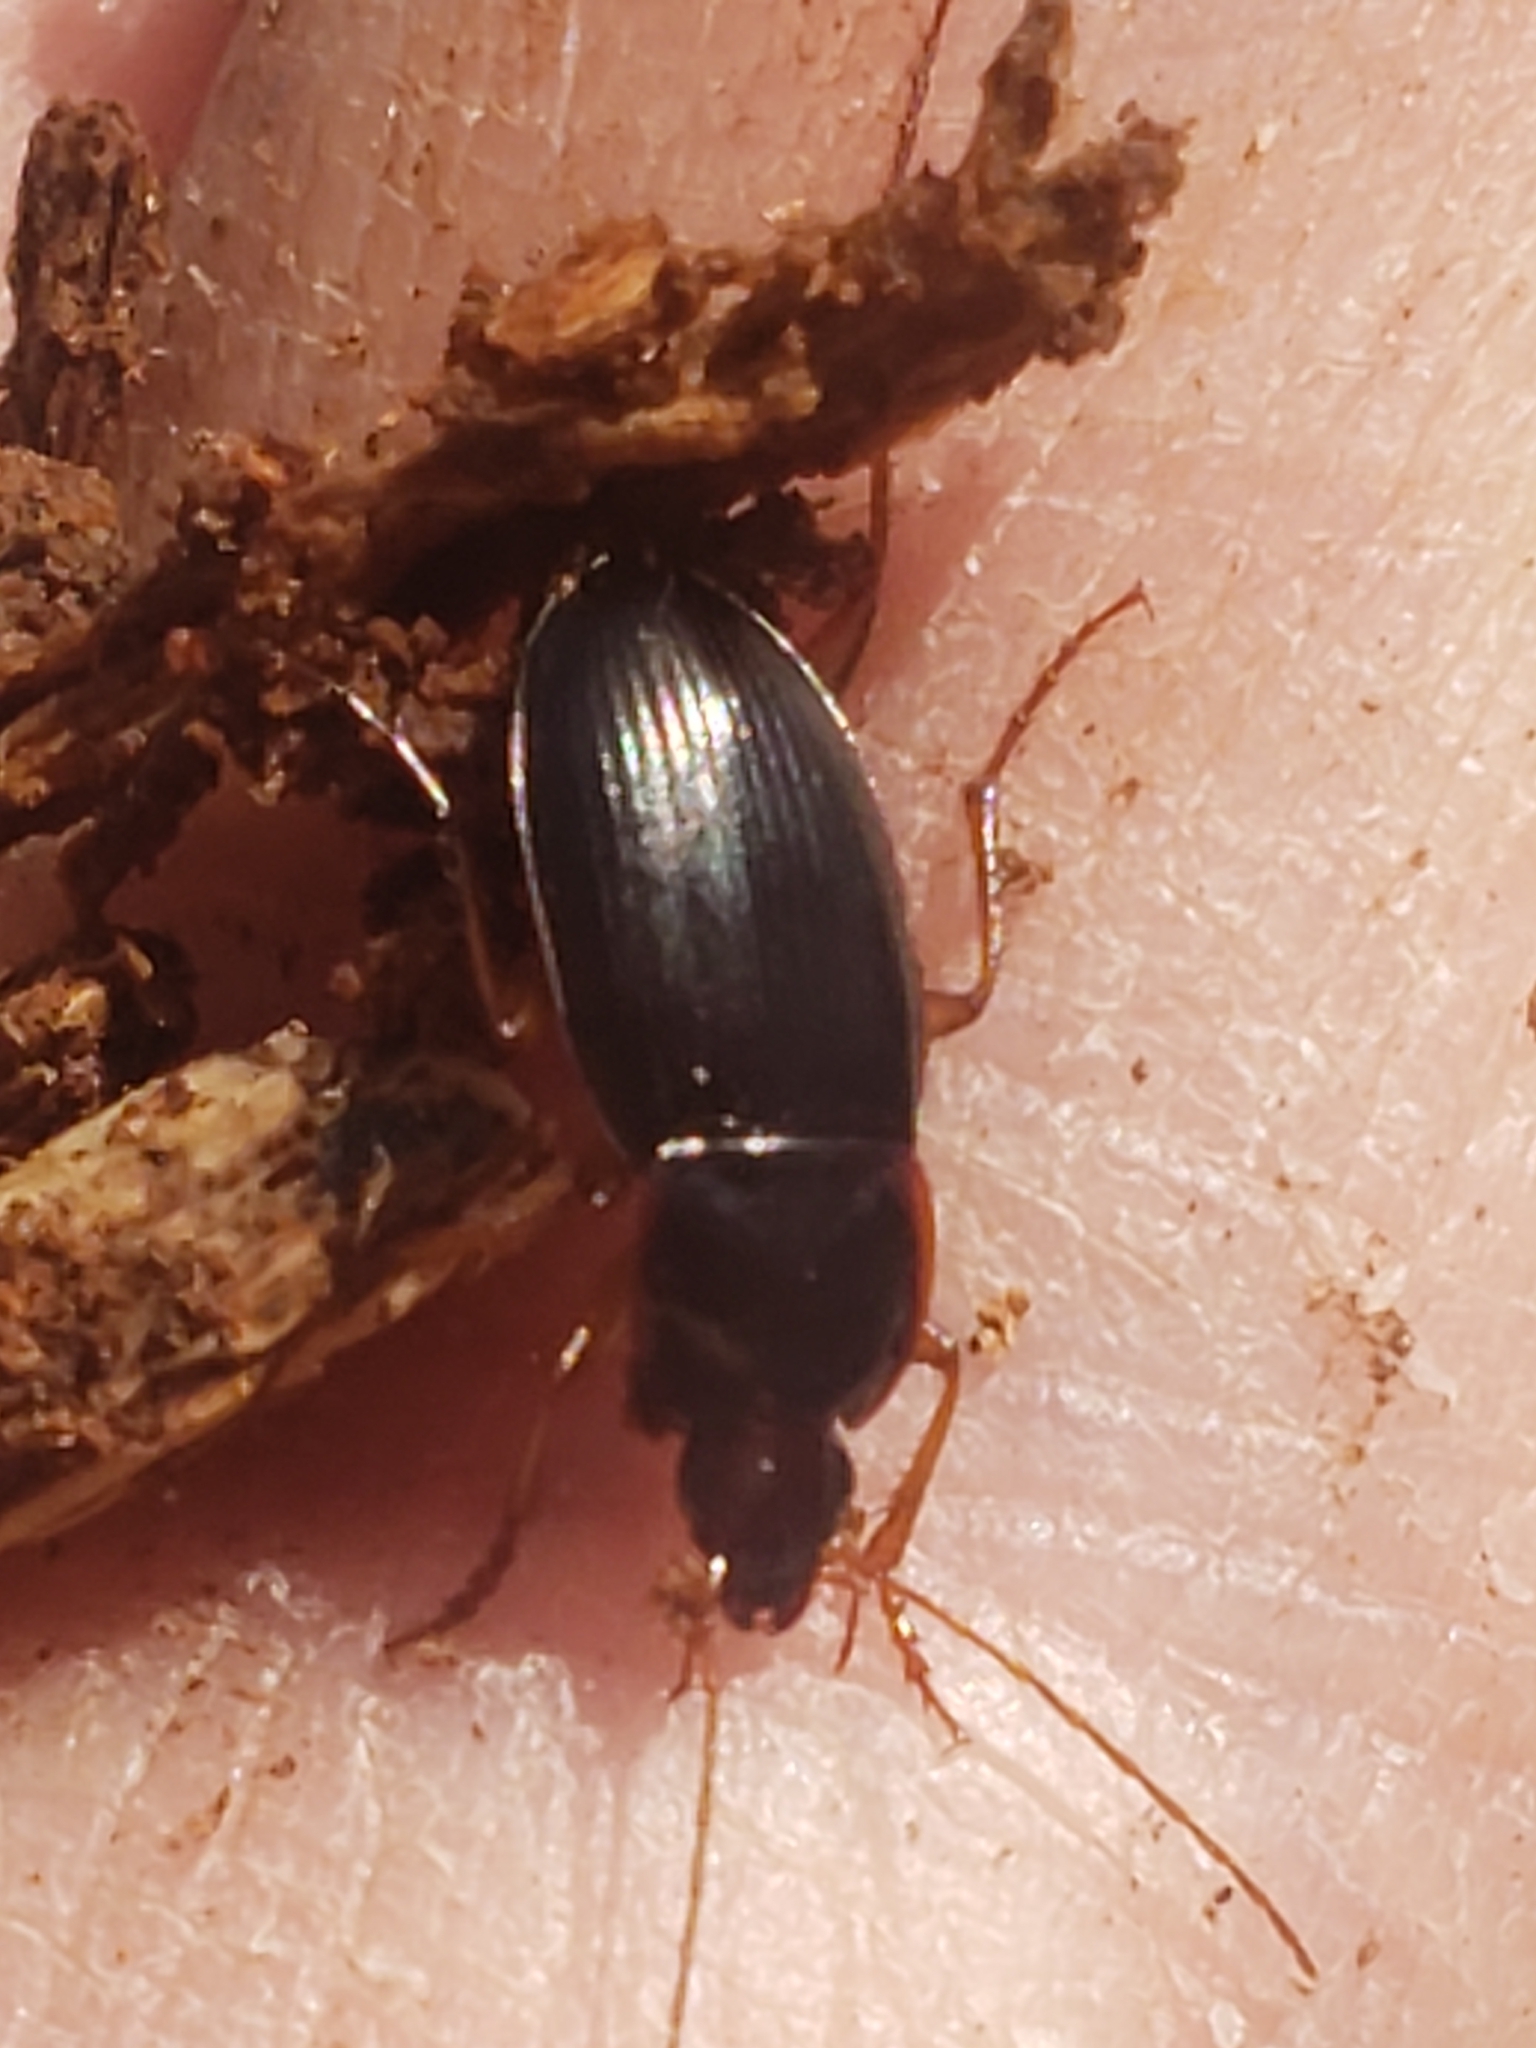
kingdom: Animalia
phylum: Arthropoda
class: Insecta
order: Coleoptera
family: Carabidae
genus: Calathus
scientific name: Calathus opaculus
